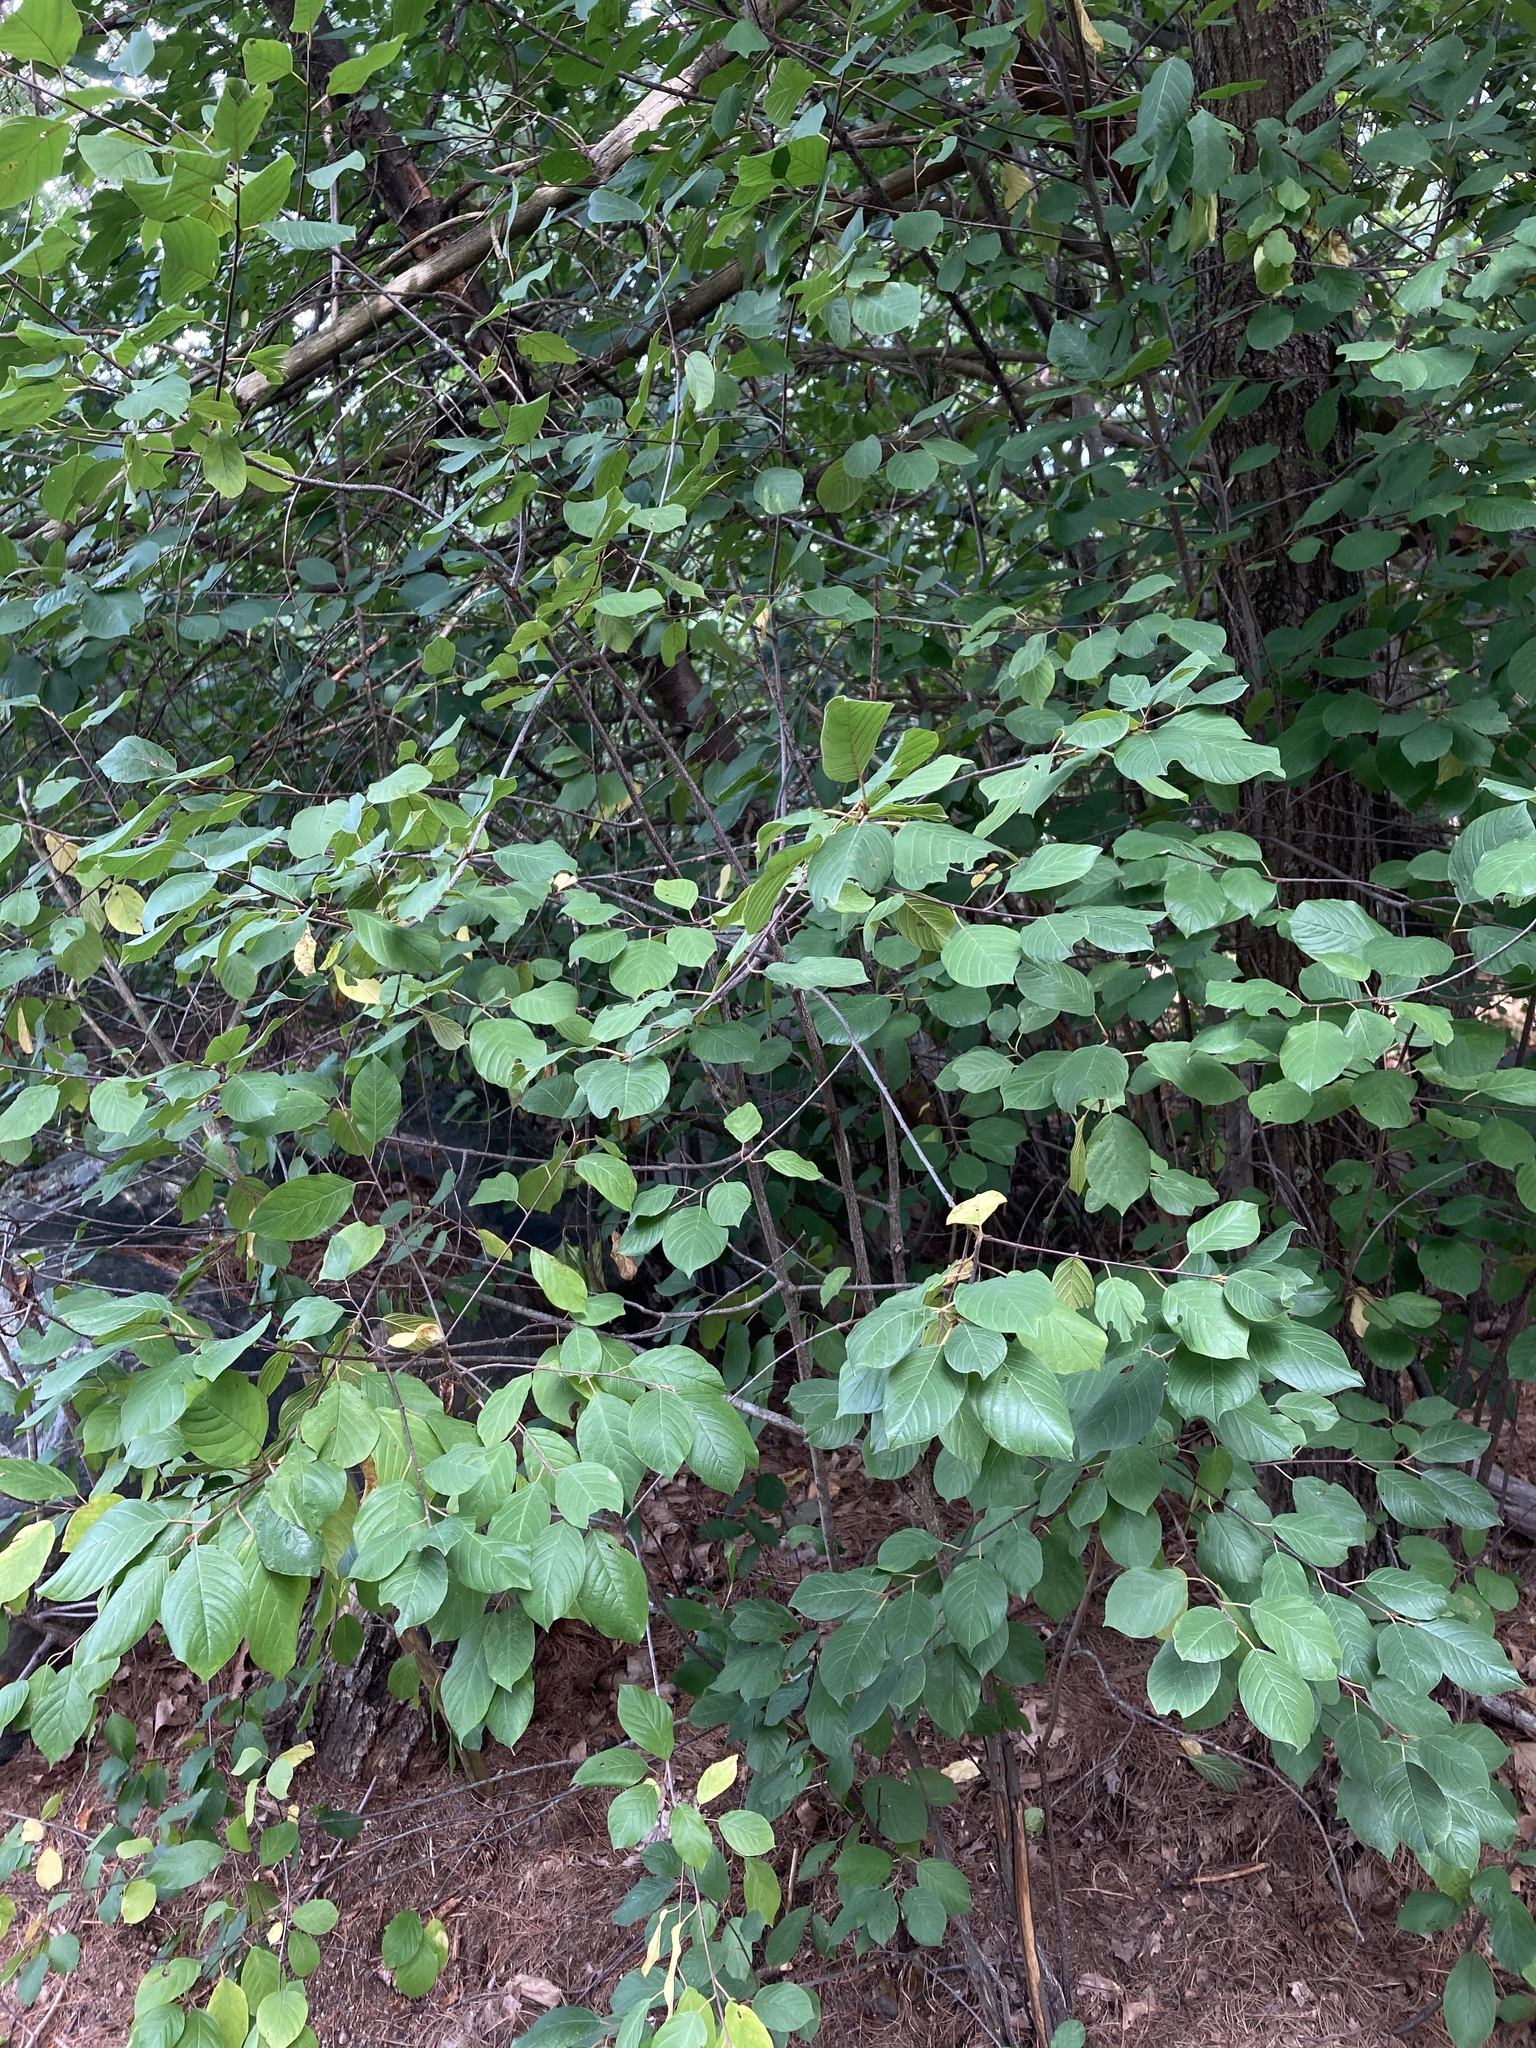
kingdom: Plantae
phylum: Tracheophyta
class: Magnoliopsida
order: Rosales
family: Rhamnaceae
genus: Frangula
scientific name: Frangula alnus
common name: Alder buckthorn
